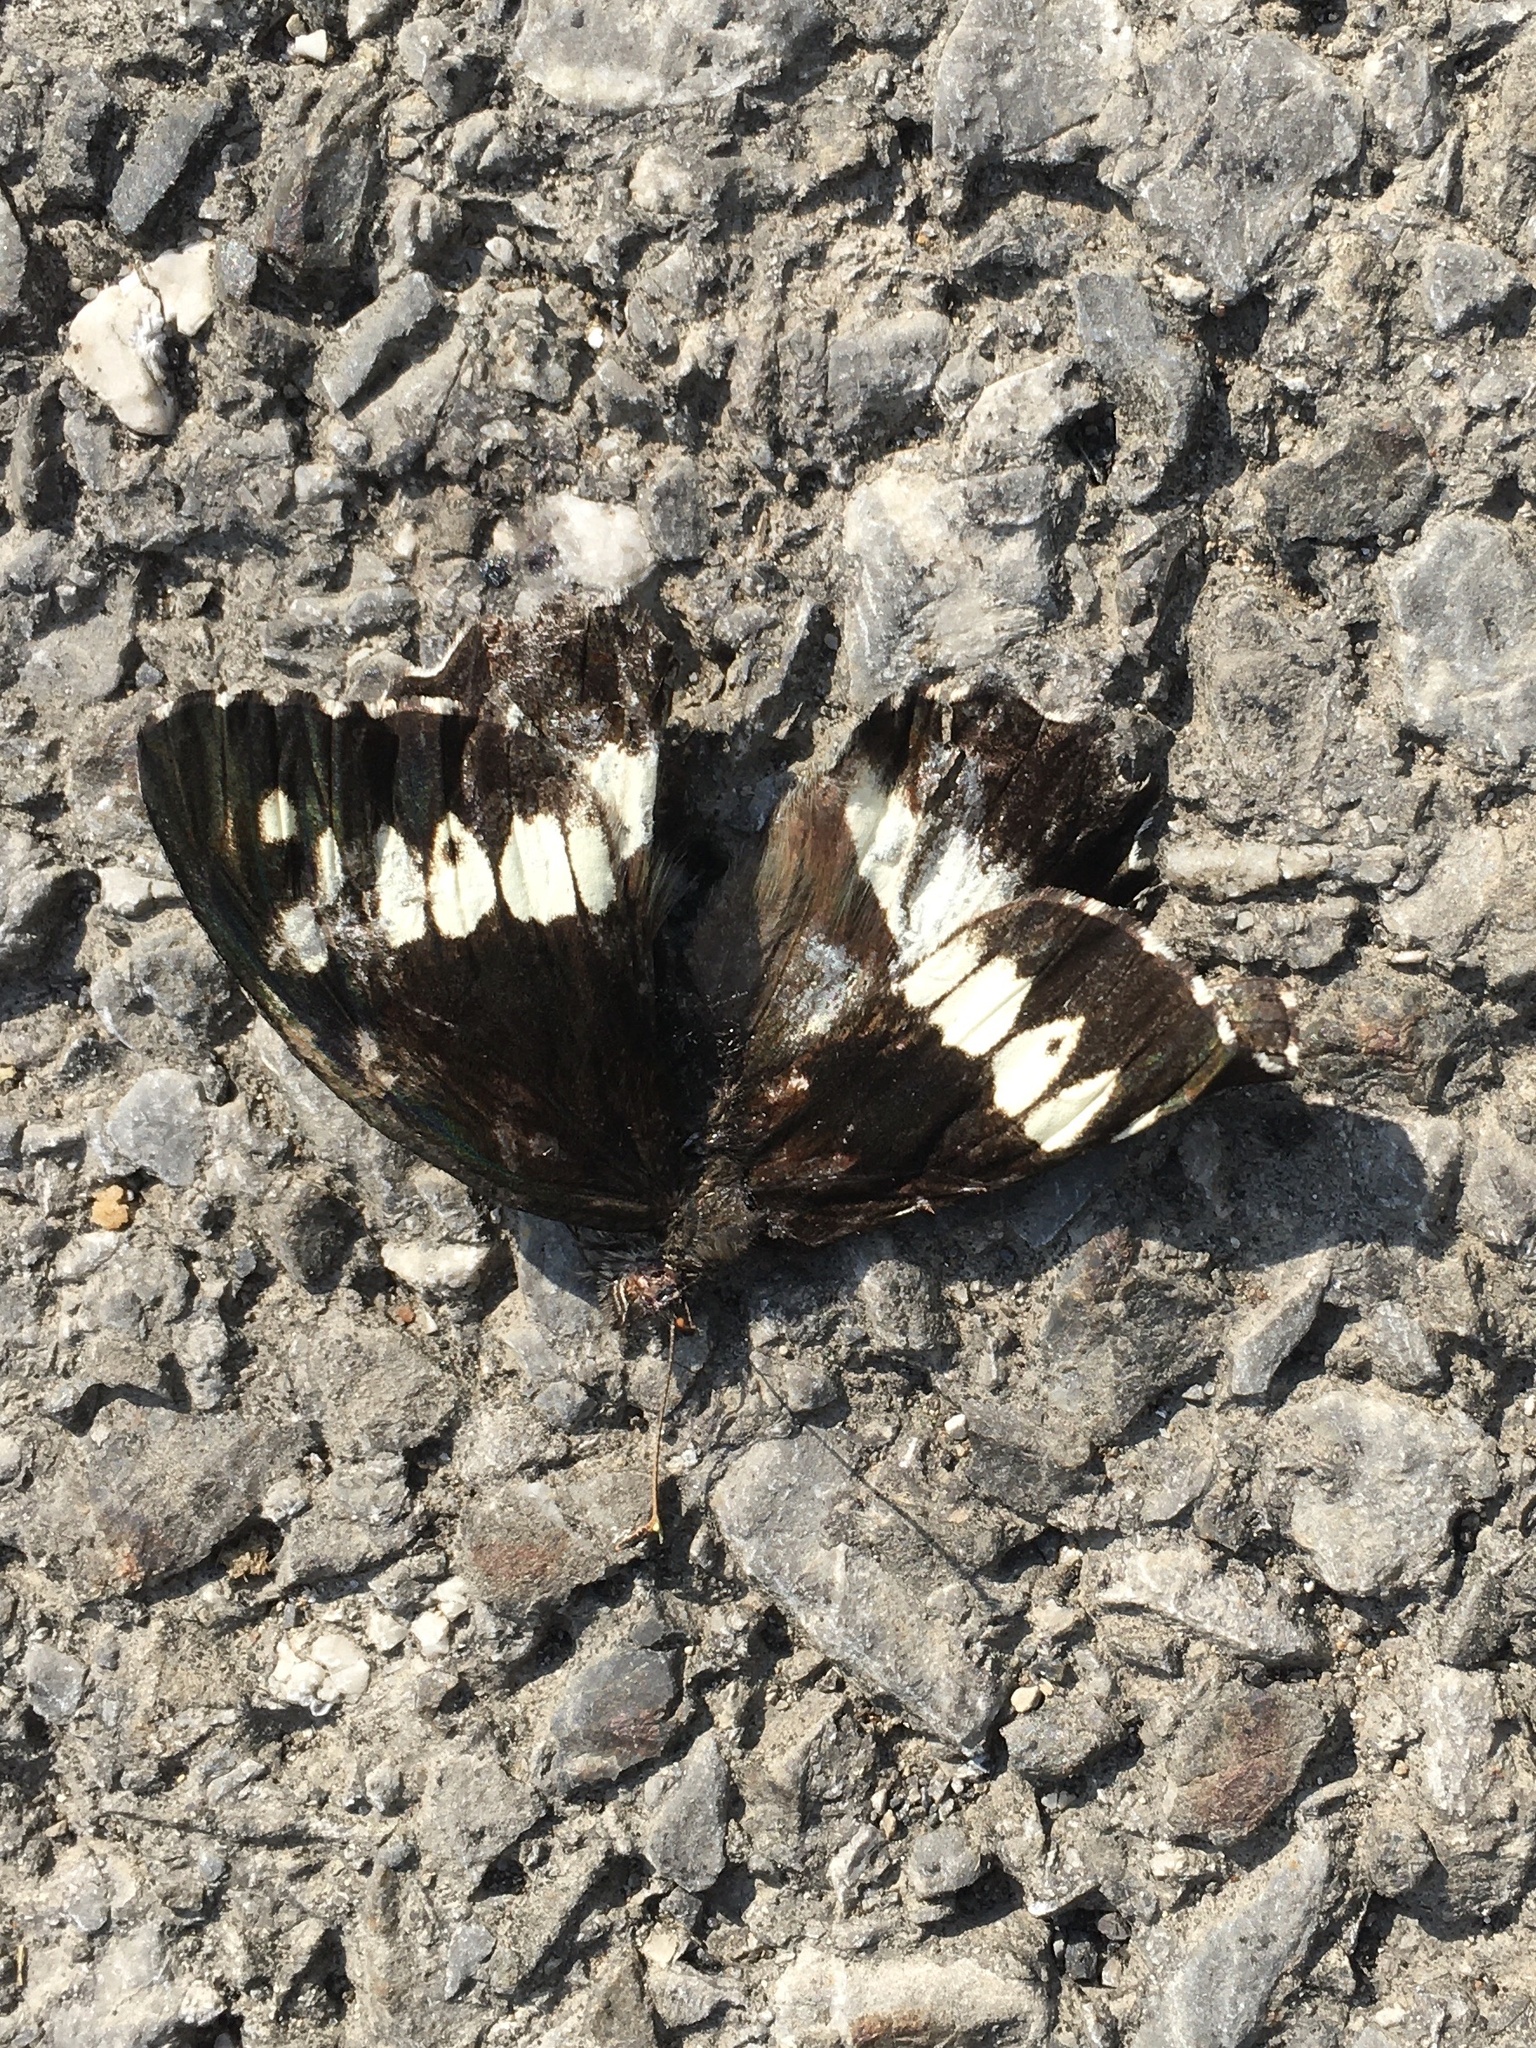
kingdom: Animalia
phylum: Arthropoda
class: Insecta
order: Lepidoptera
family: Lycaenidae
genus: Loweia
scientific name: Loweia tityrus
